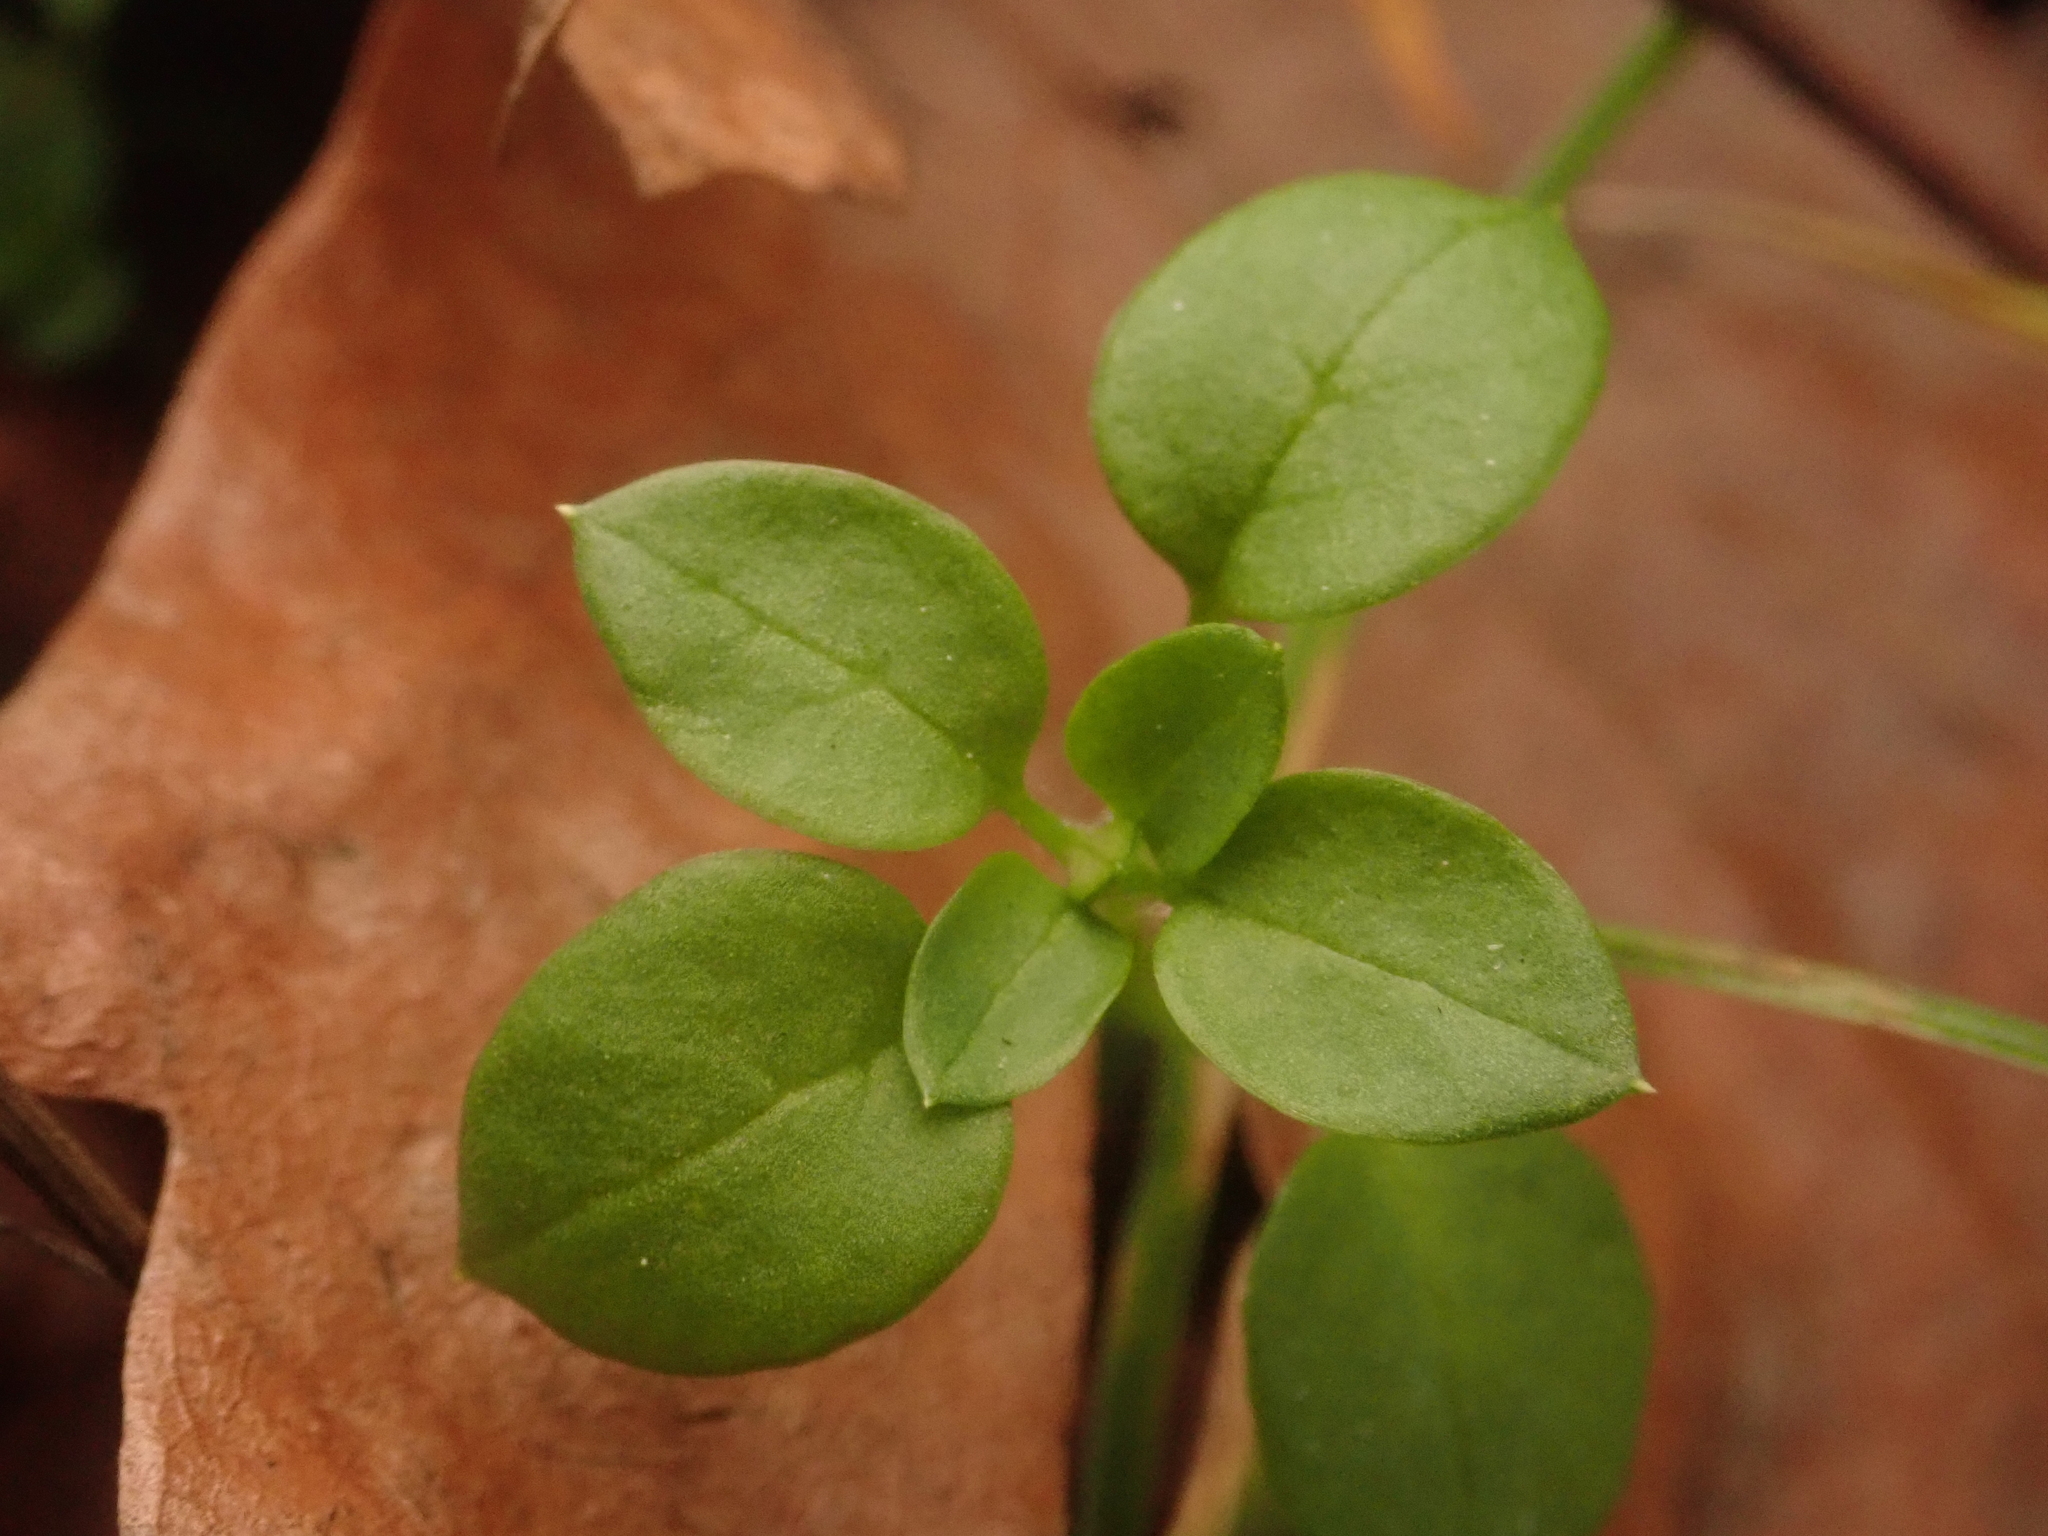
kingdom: Plantae
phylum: Tracheophyta
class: Magnoliopsida
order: Caryophyllales
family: Caryophyllaceae
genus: Stellaria
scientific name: Stellaria media
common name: Common chickweed
